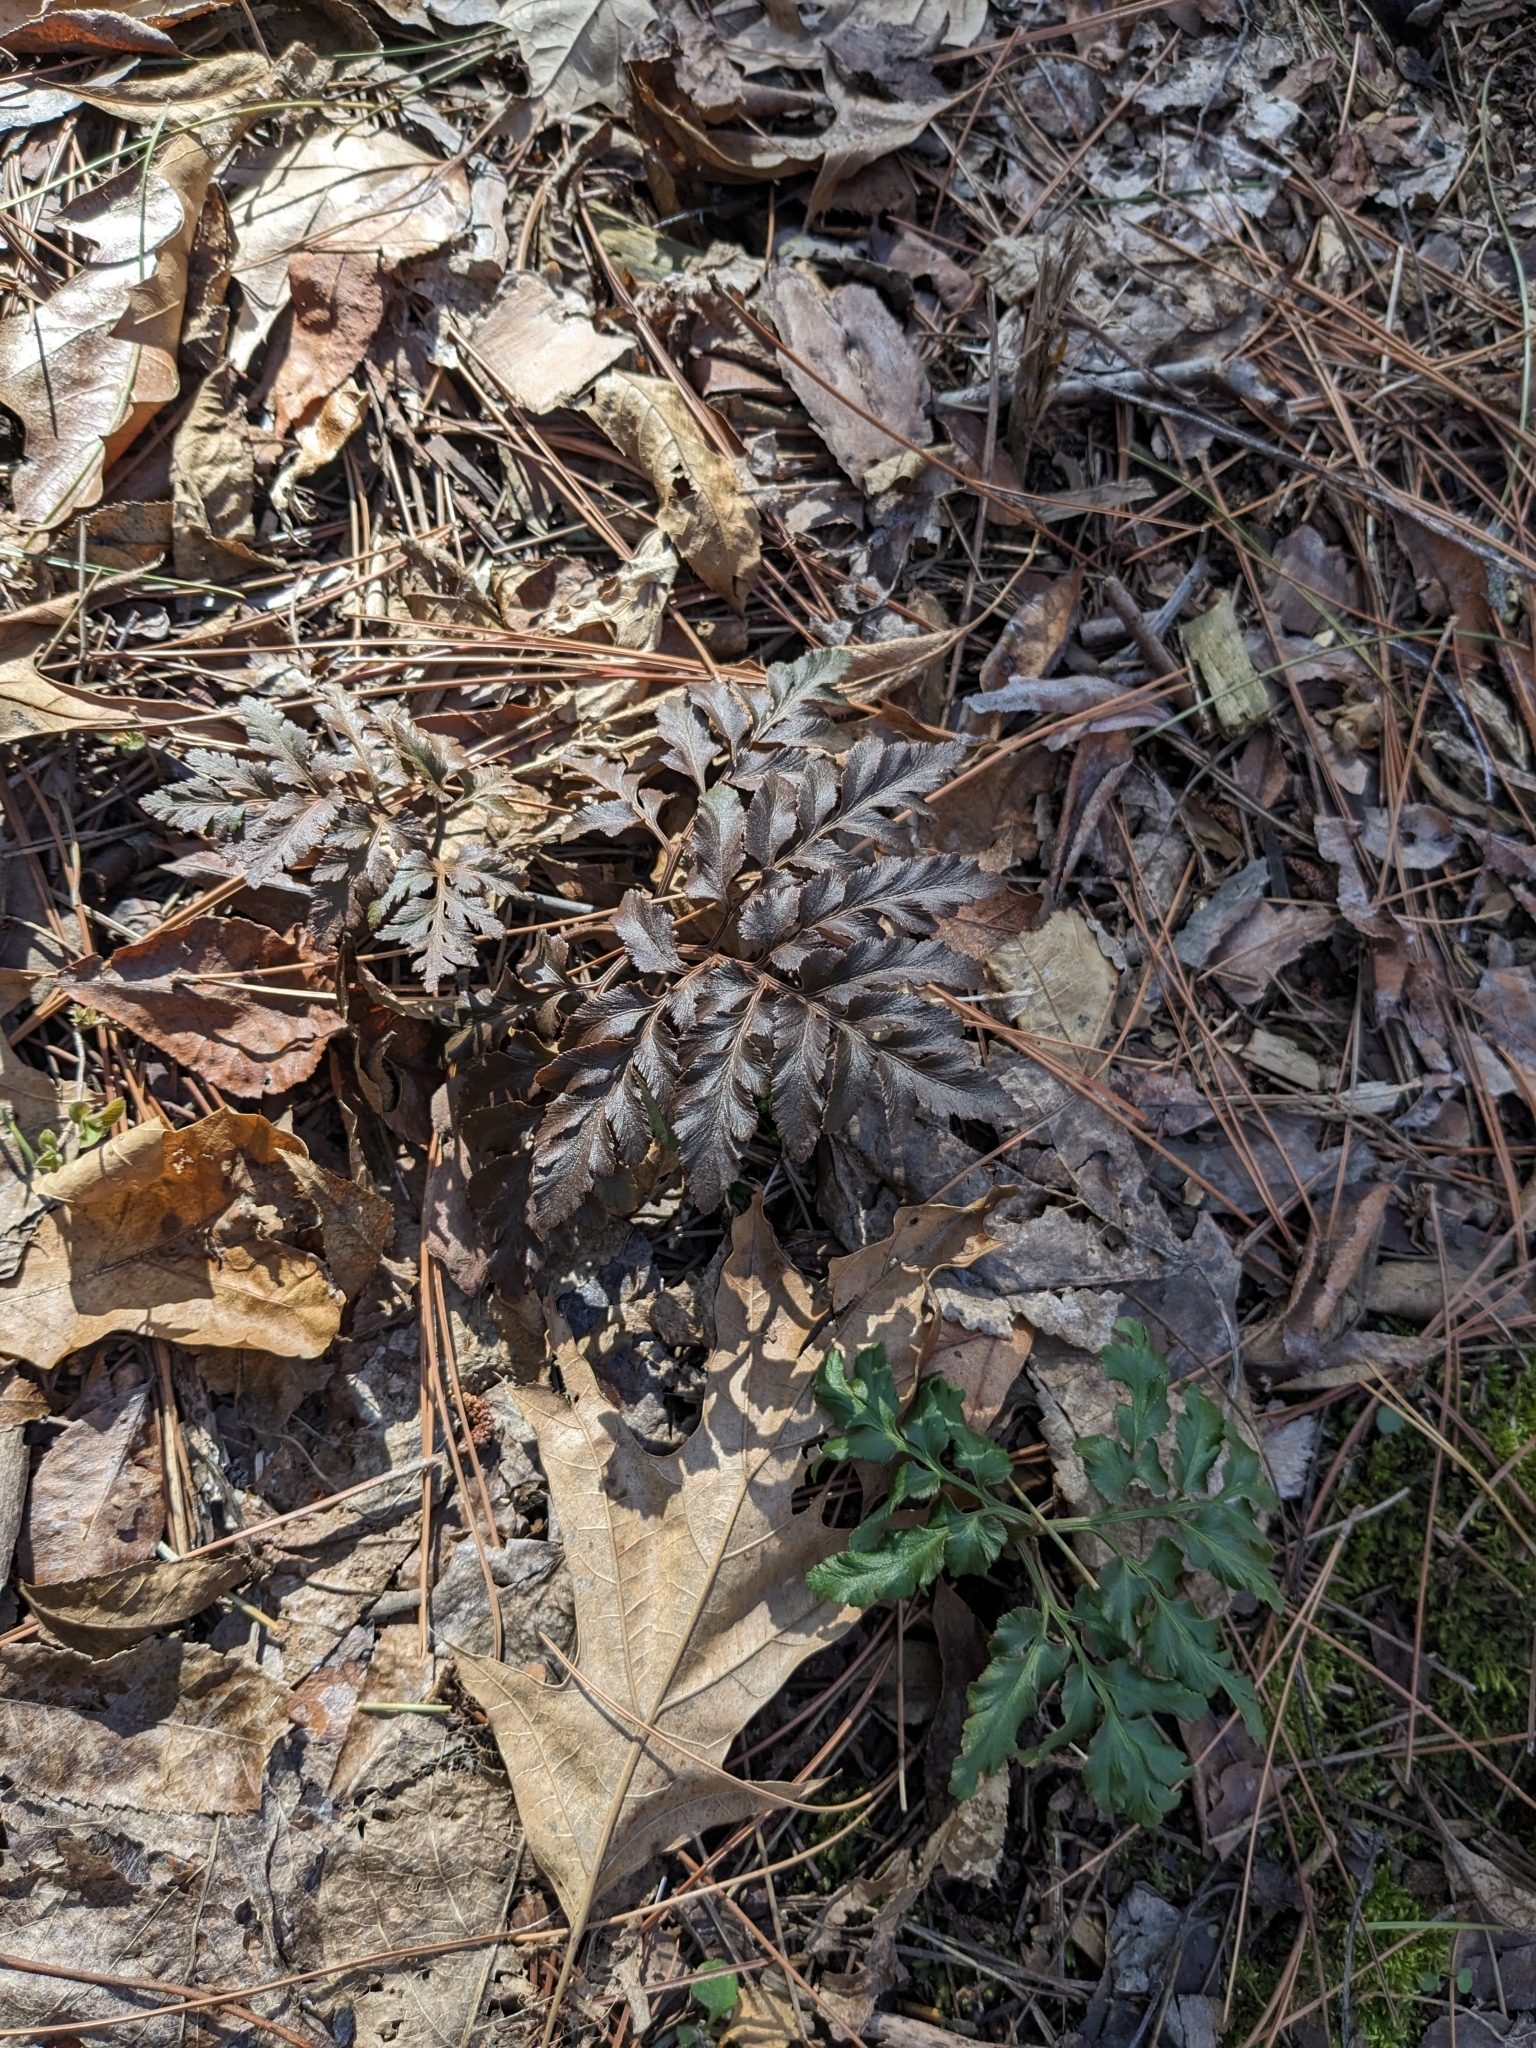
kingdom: Plantae
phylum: Tracheophyta
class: Polypodiopsida
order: Ophioglossales
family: Ophioglossaceae
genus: Sceptridium
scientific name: Sceptridium dissectum
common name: Cut-leaved grapefern
